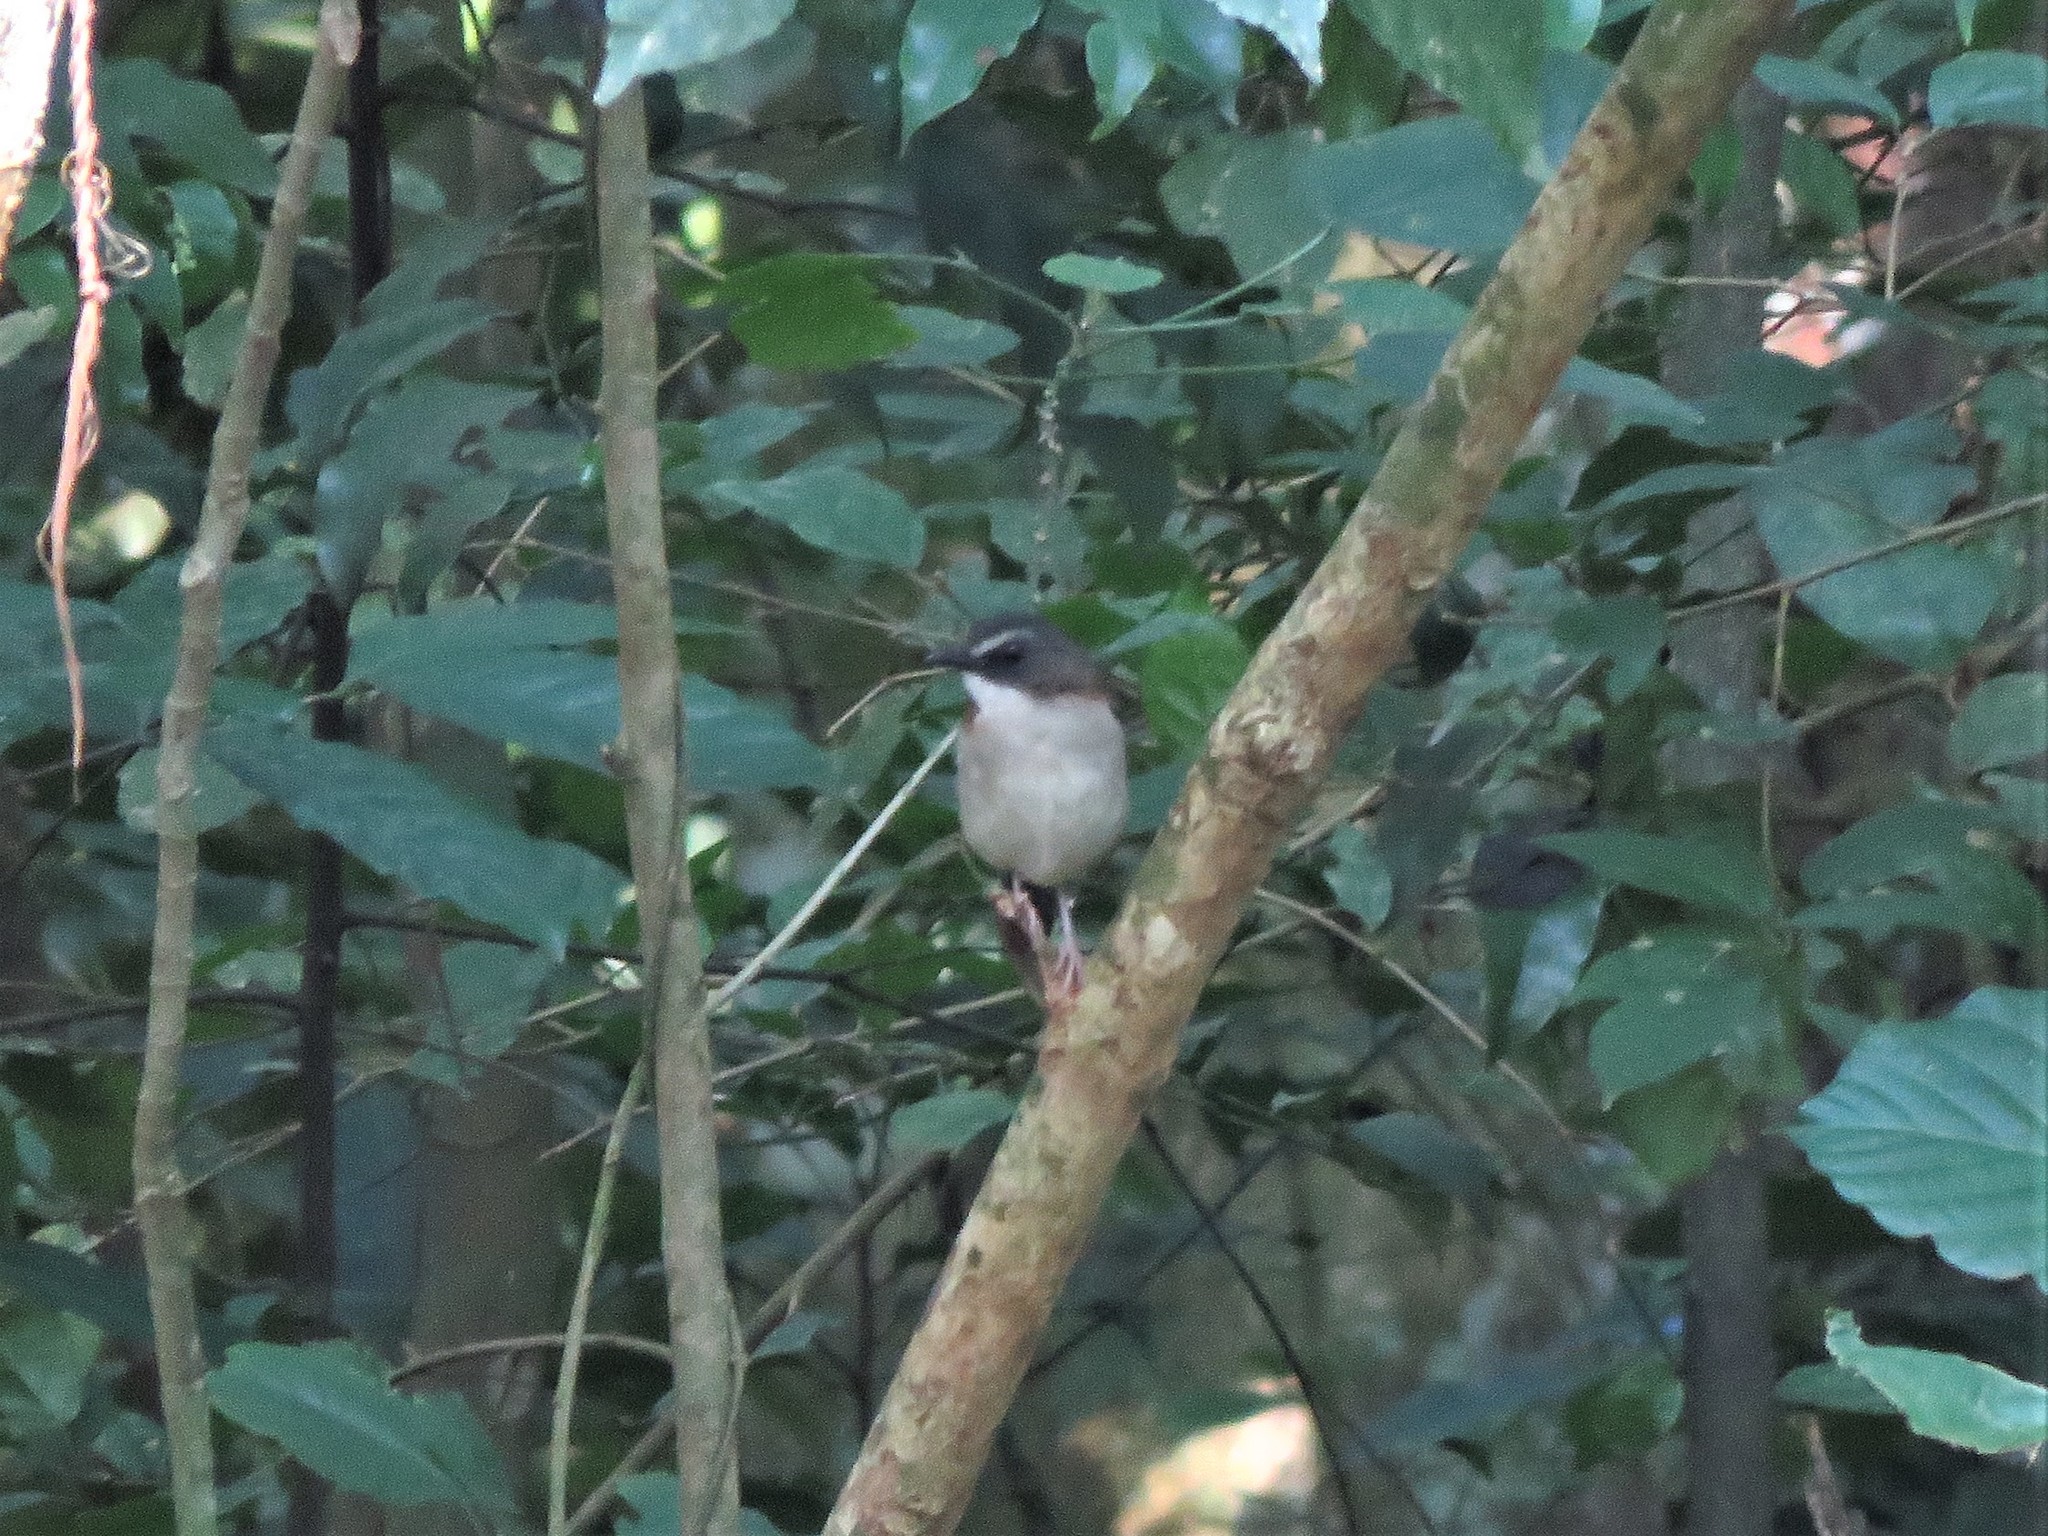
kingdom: Animalia
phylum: Chordata
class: Aves
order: Passeriformes
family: Muscicapidae
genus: Chamaetylas
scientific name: Chamaetylas poliocephala
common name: Brown-chested alethe
